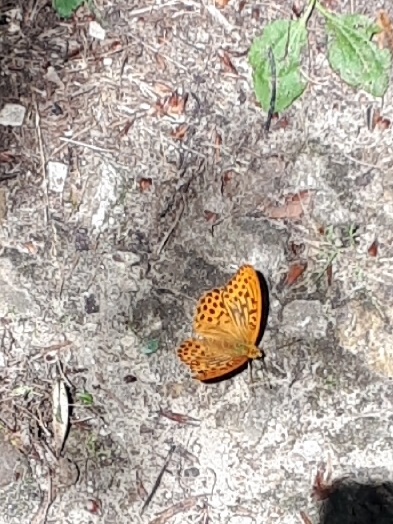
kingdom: Animalia
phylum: Arthropoda
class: Insecta
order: Lepidoptera
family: Nymphalidae
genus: Argynnis
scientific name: Argynnis paphia
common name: Silver-washed fritillary
